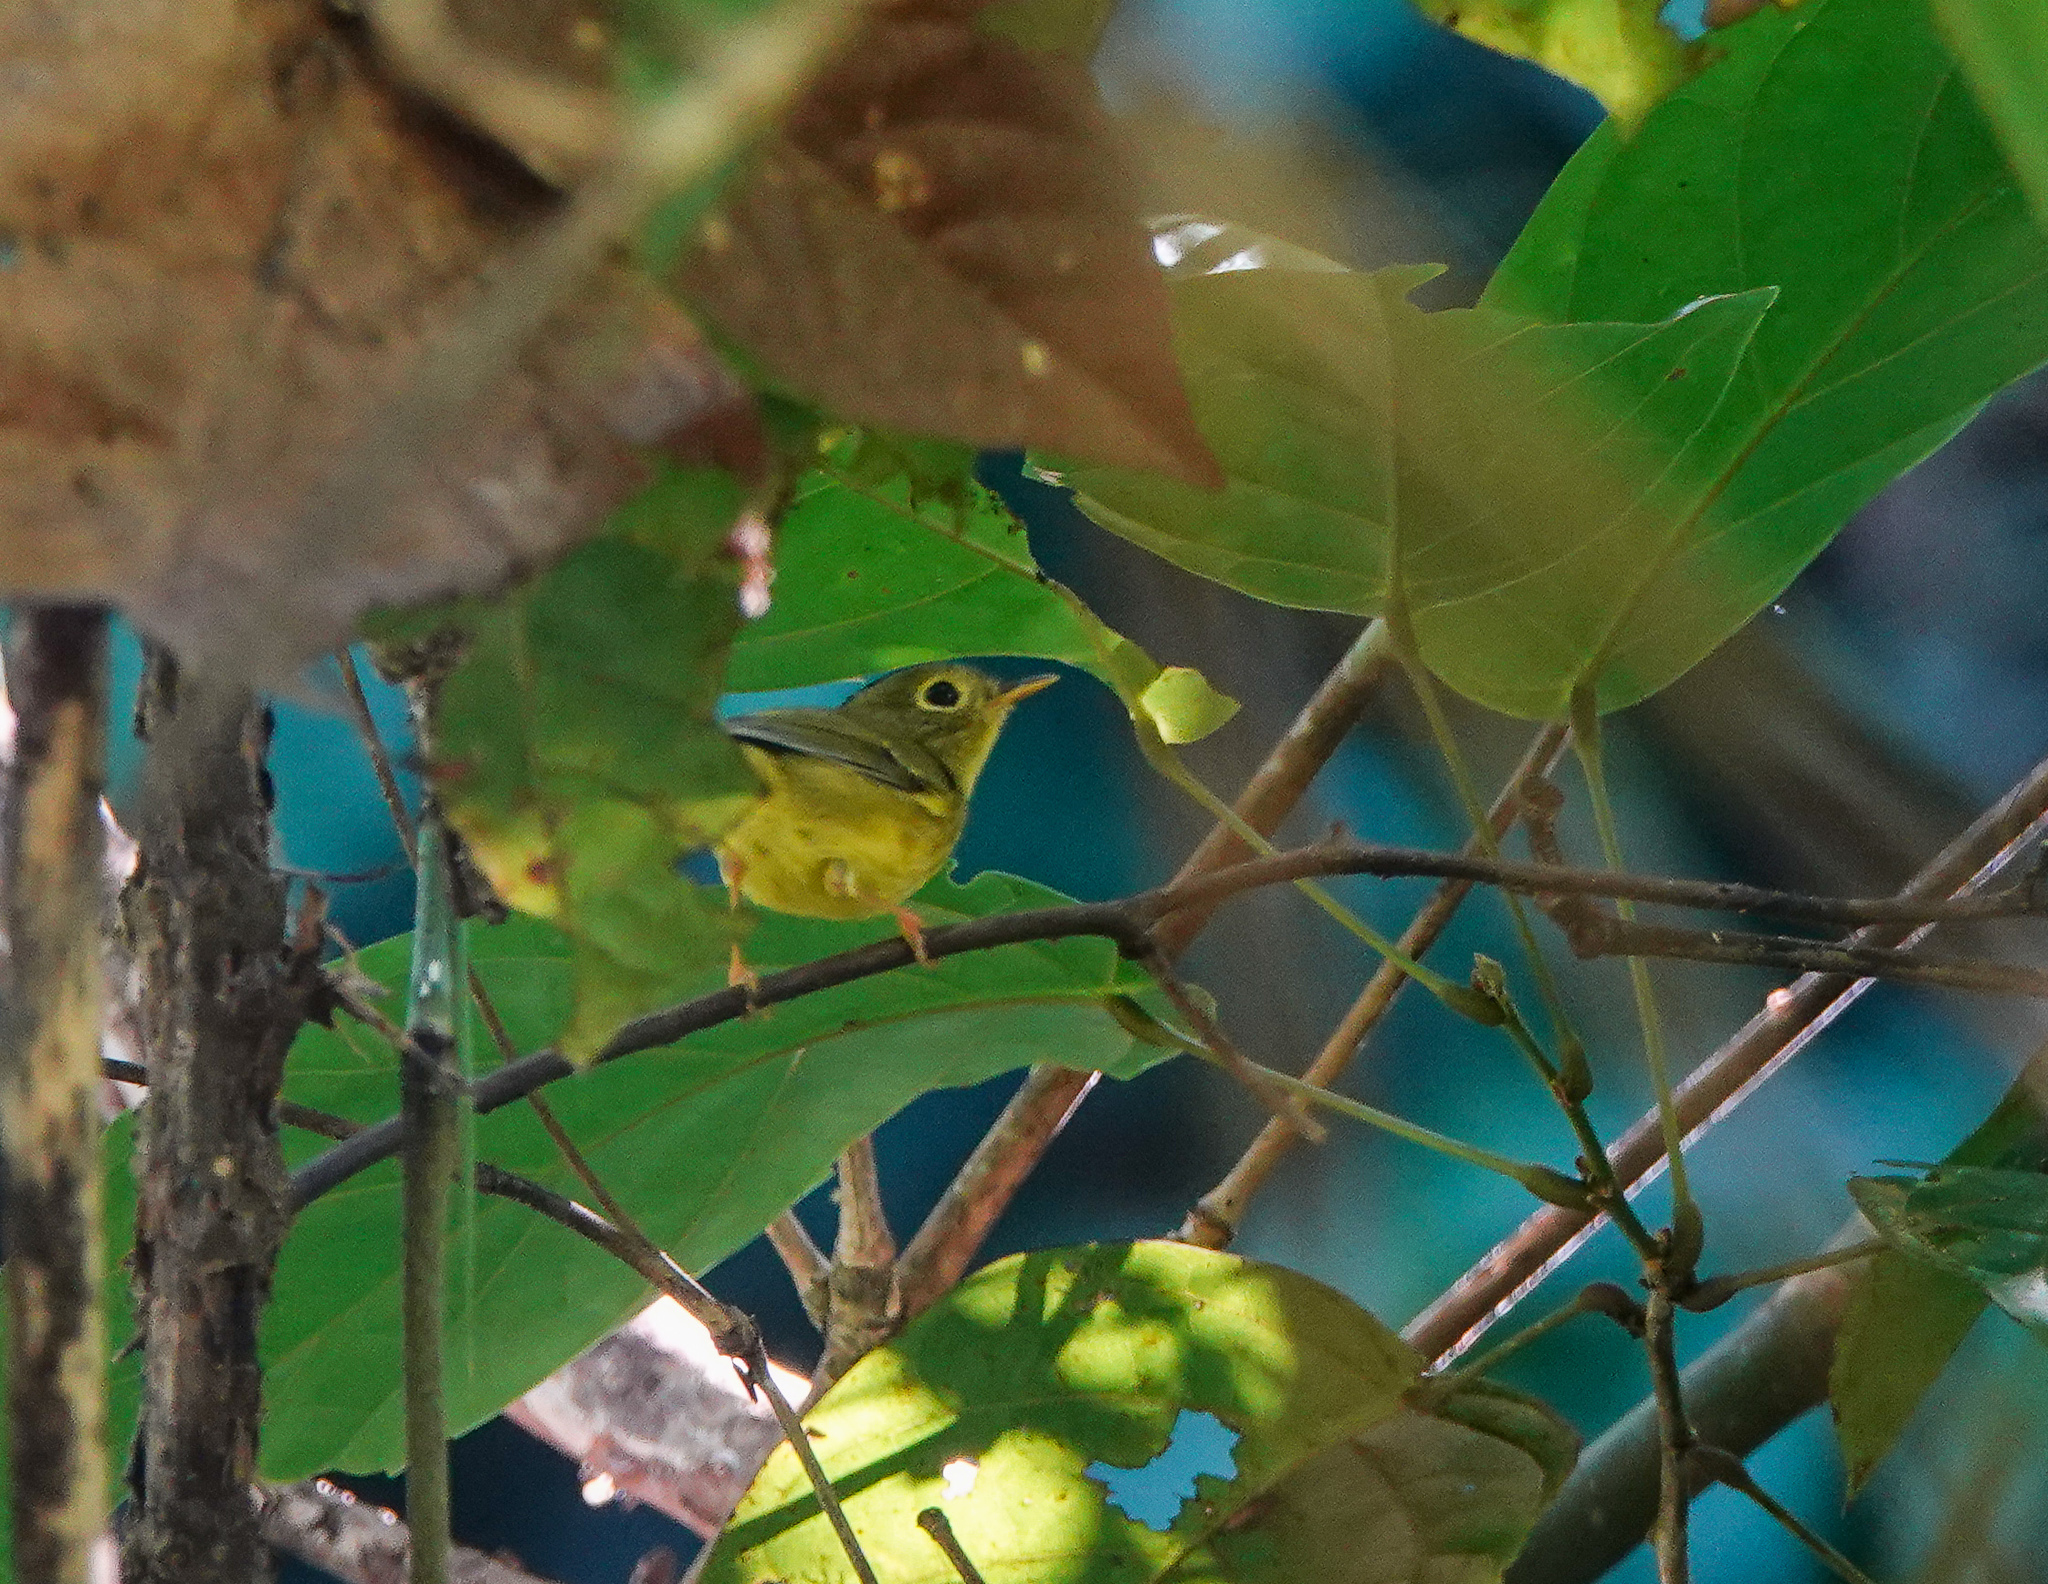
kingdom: Animalia
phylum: Chordata
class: Aves
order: Passeriformes
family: Phylloscopidae
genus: Seicercus
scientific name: Seicercus burkii
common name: Green-crowned warbler
